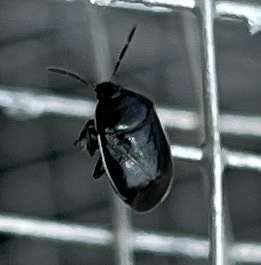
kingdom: Animalia
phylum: Arthropoda
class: Insecta
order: Hemiptera
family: Cydnidae
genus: Sehirus
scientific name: Sehirus cinctus
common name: White-margined burrower bug
